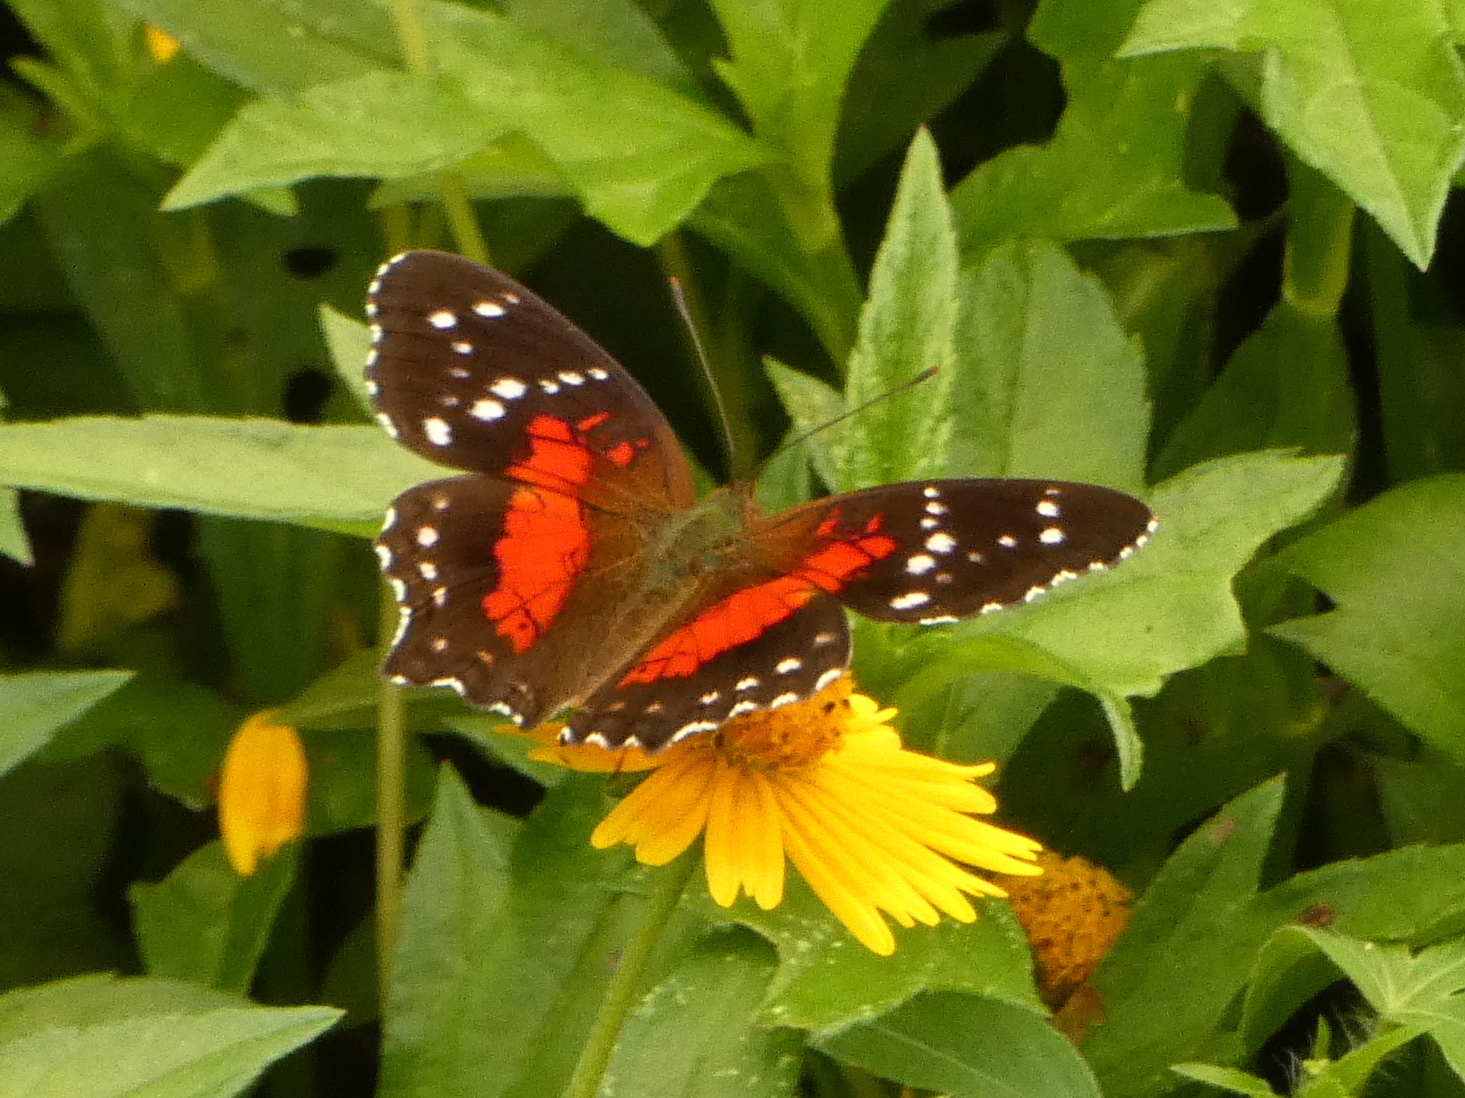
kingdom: Animalia
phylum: Arthropoda
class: Insecta
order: Lepidoptera
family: Nymphalidae
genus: Anartia
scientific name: Anartia amathea
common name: Red peacock
